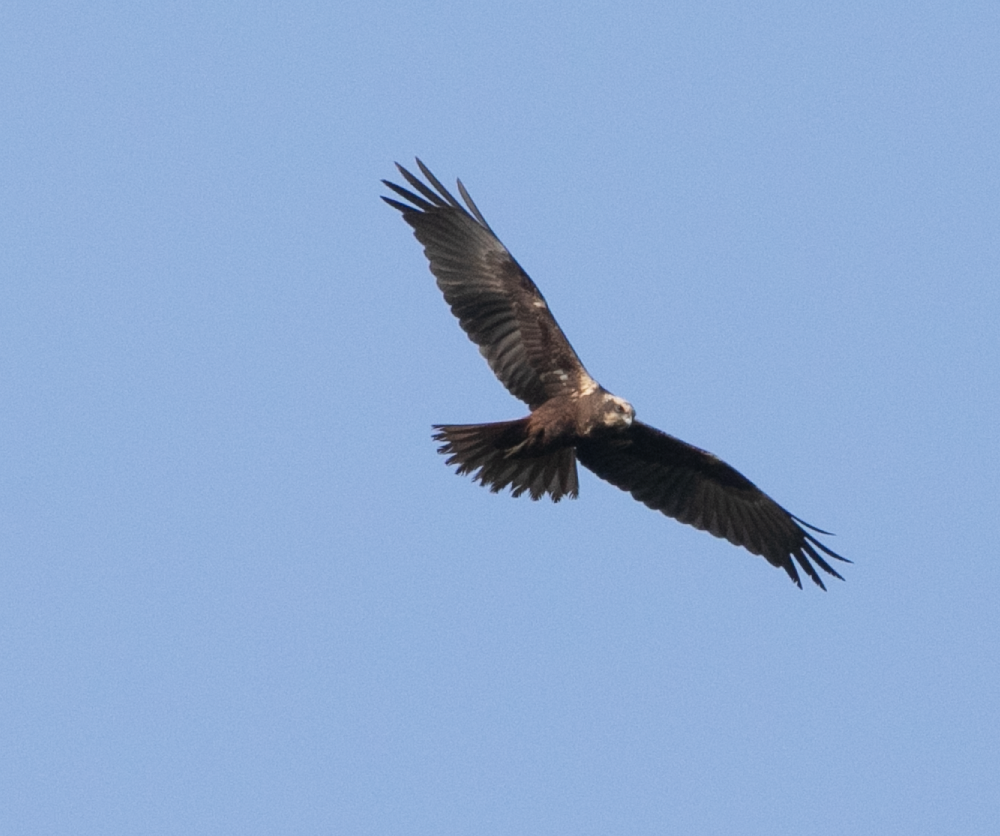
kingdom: Animalia
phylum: Chordata
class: Aves
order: Accipitriformes
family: Accipitridae
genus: Circus
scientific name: Circus aeruginosus
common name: Western marsh harrier
